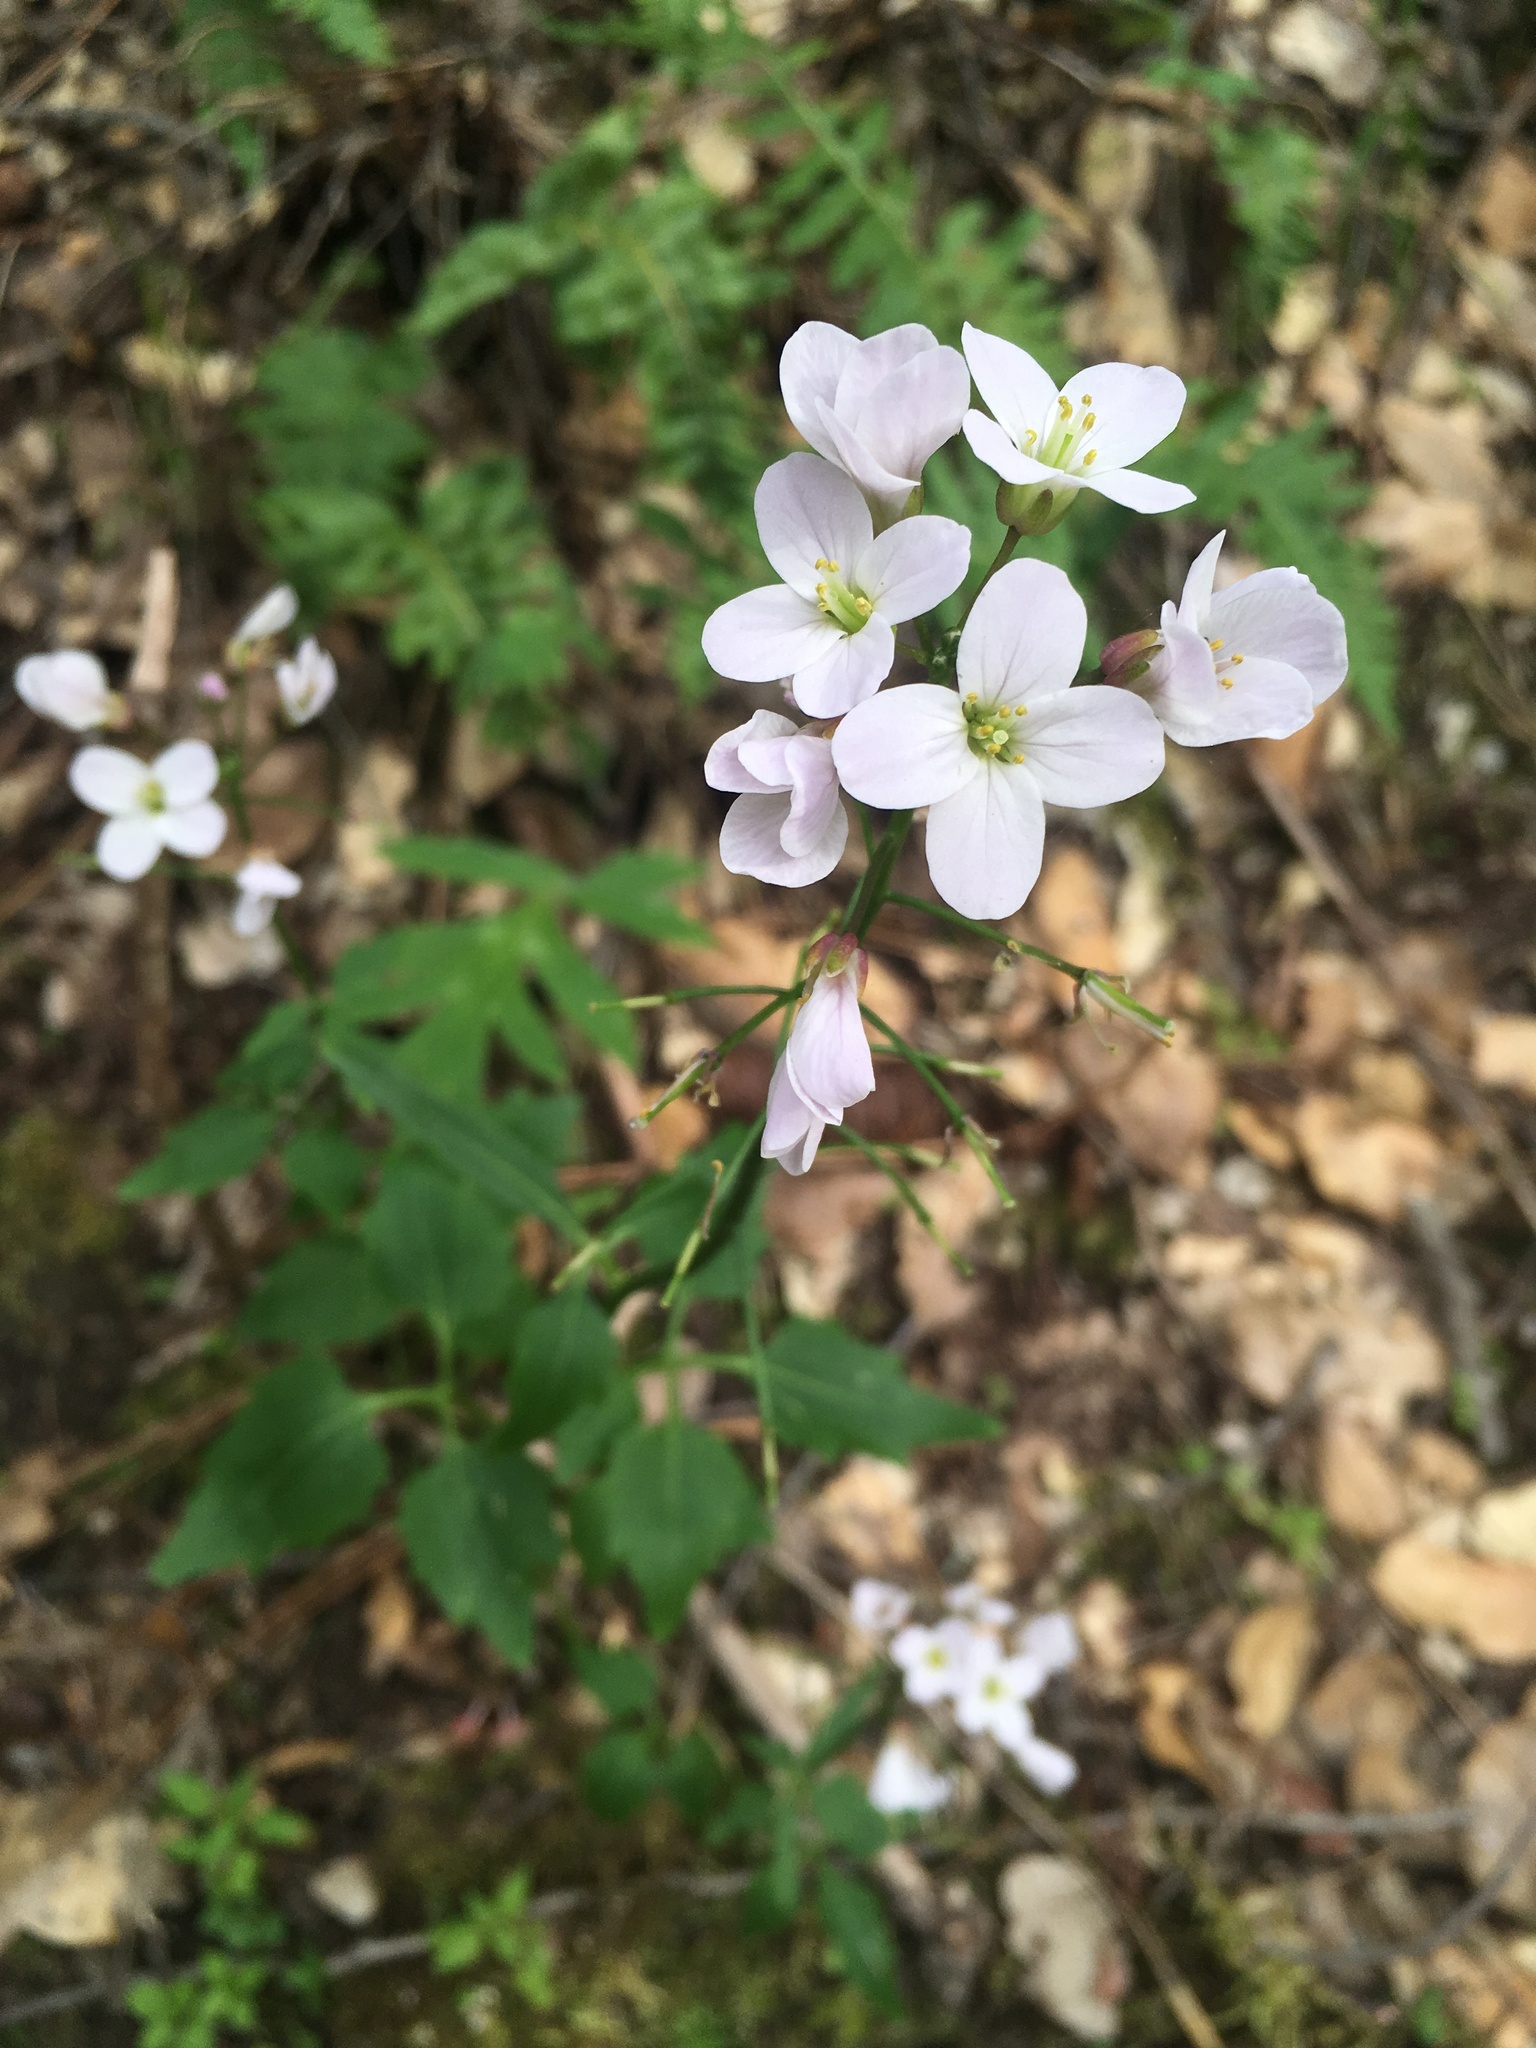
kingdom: Plantae
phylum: Tracheophyta
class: Magnoliopsida
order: Brassicales
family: Brassicaceae
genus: Cardamine
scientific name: Cardamine californica
